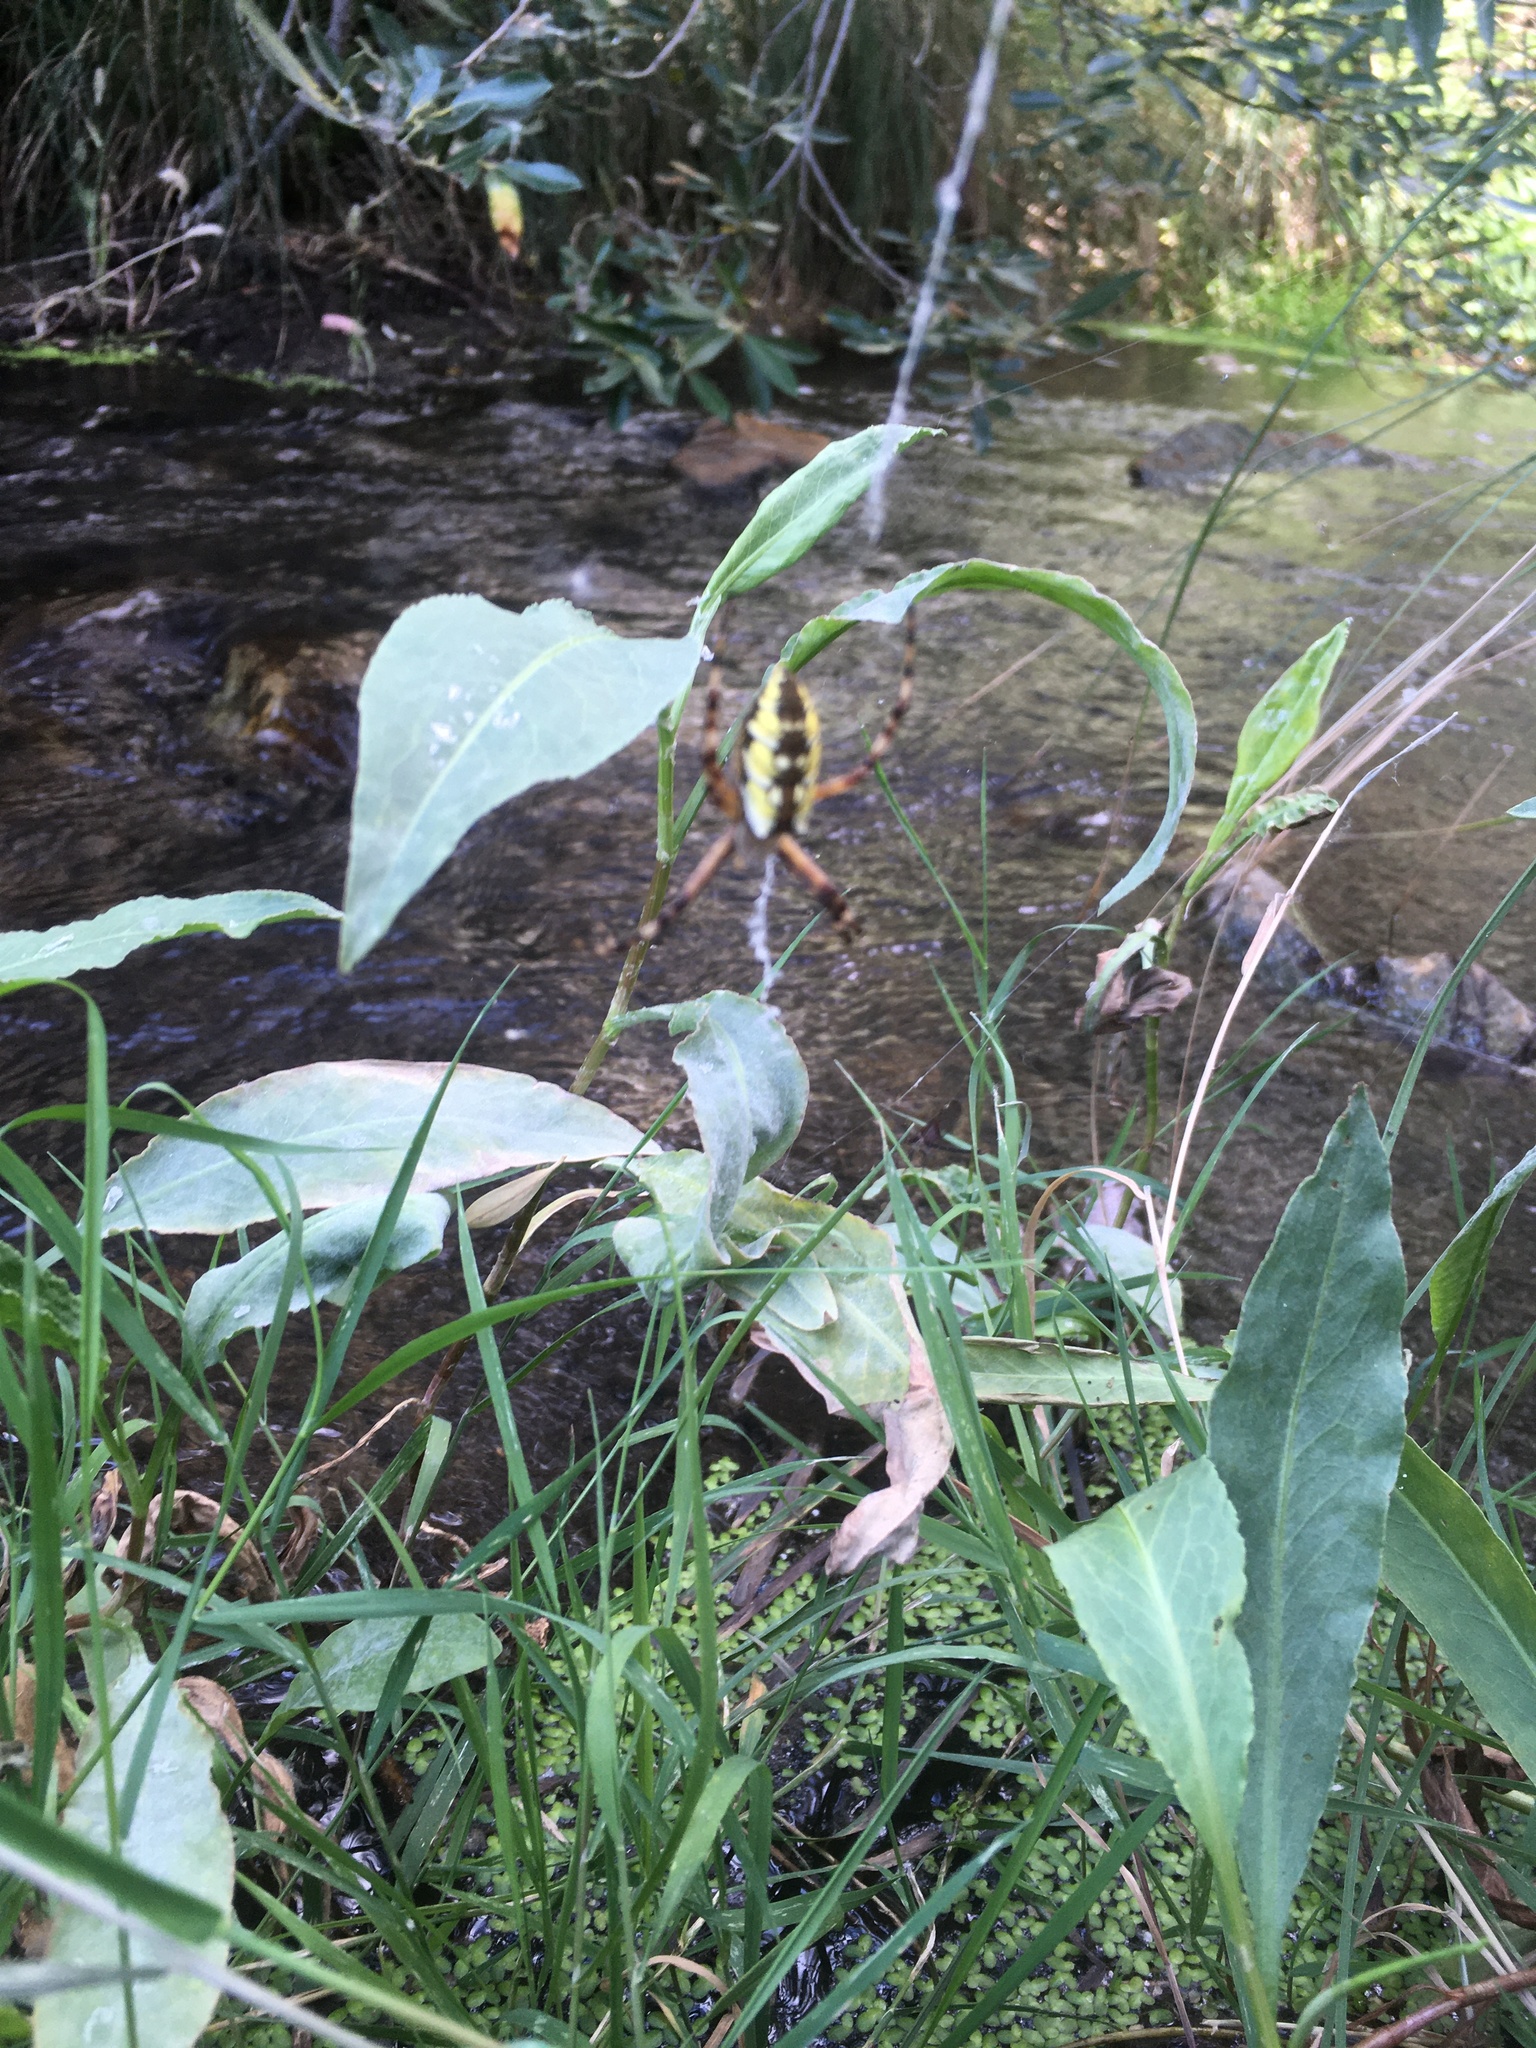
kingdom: Animalia
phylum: Arthropoda
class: Arachnida
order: Araneae
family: Araneidae
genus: Argiope
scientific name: Argiope aurantia
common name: Orb weavers
